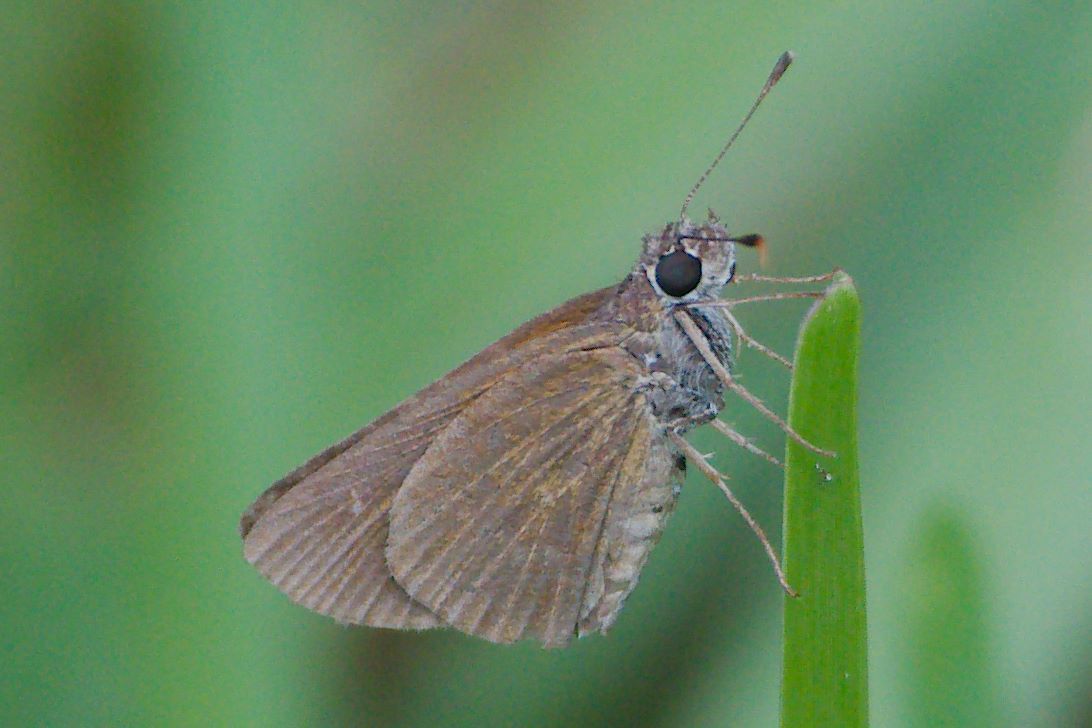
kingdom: Animalia
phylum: Arthropoda
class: Insecta
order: Lepidoptera
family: Hesperiidae
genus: Cymaenes
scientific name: Cymaenes tripunctus
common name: Dingy dotted skipper
